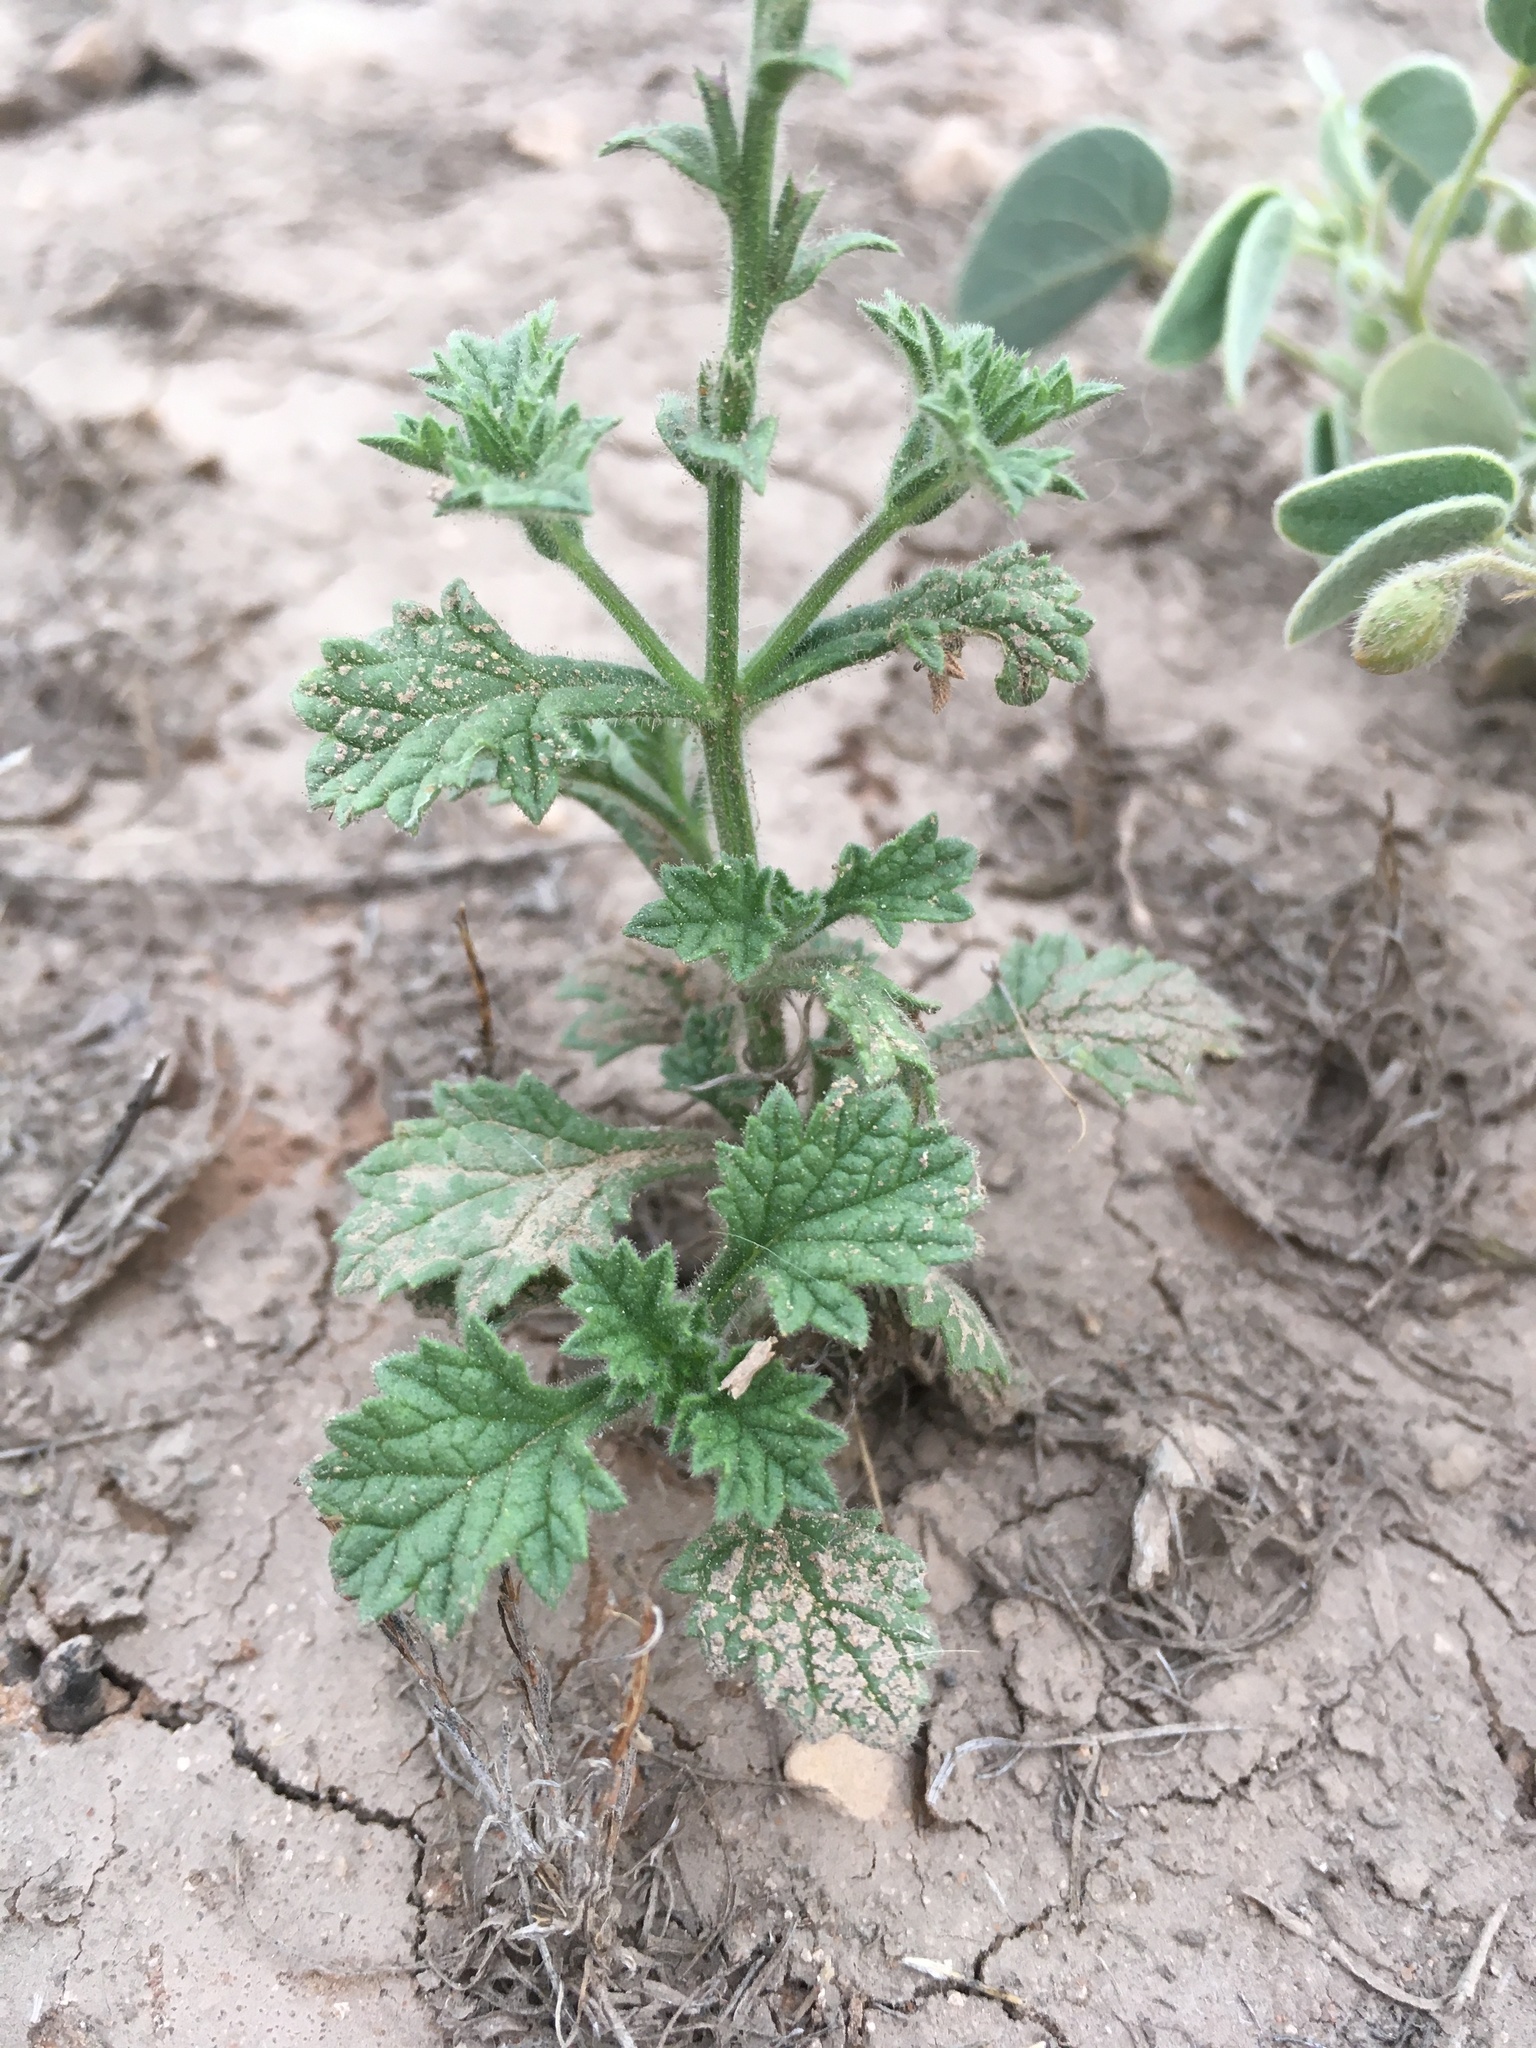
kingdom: Plantae
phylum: Tracheophyta
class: Magnoliopsida
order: Lamiales
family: Verbenaceae
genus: Verbena
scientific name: Verbena plicata
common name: Fan-leaf vervain
